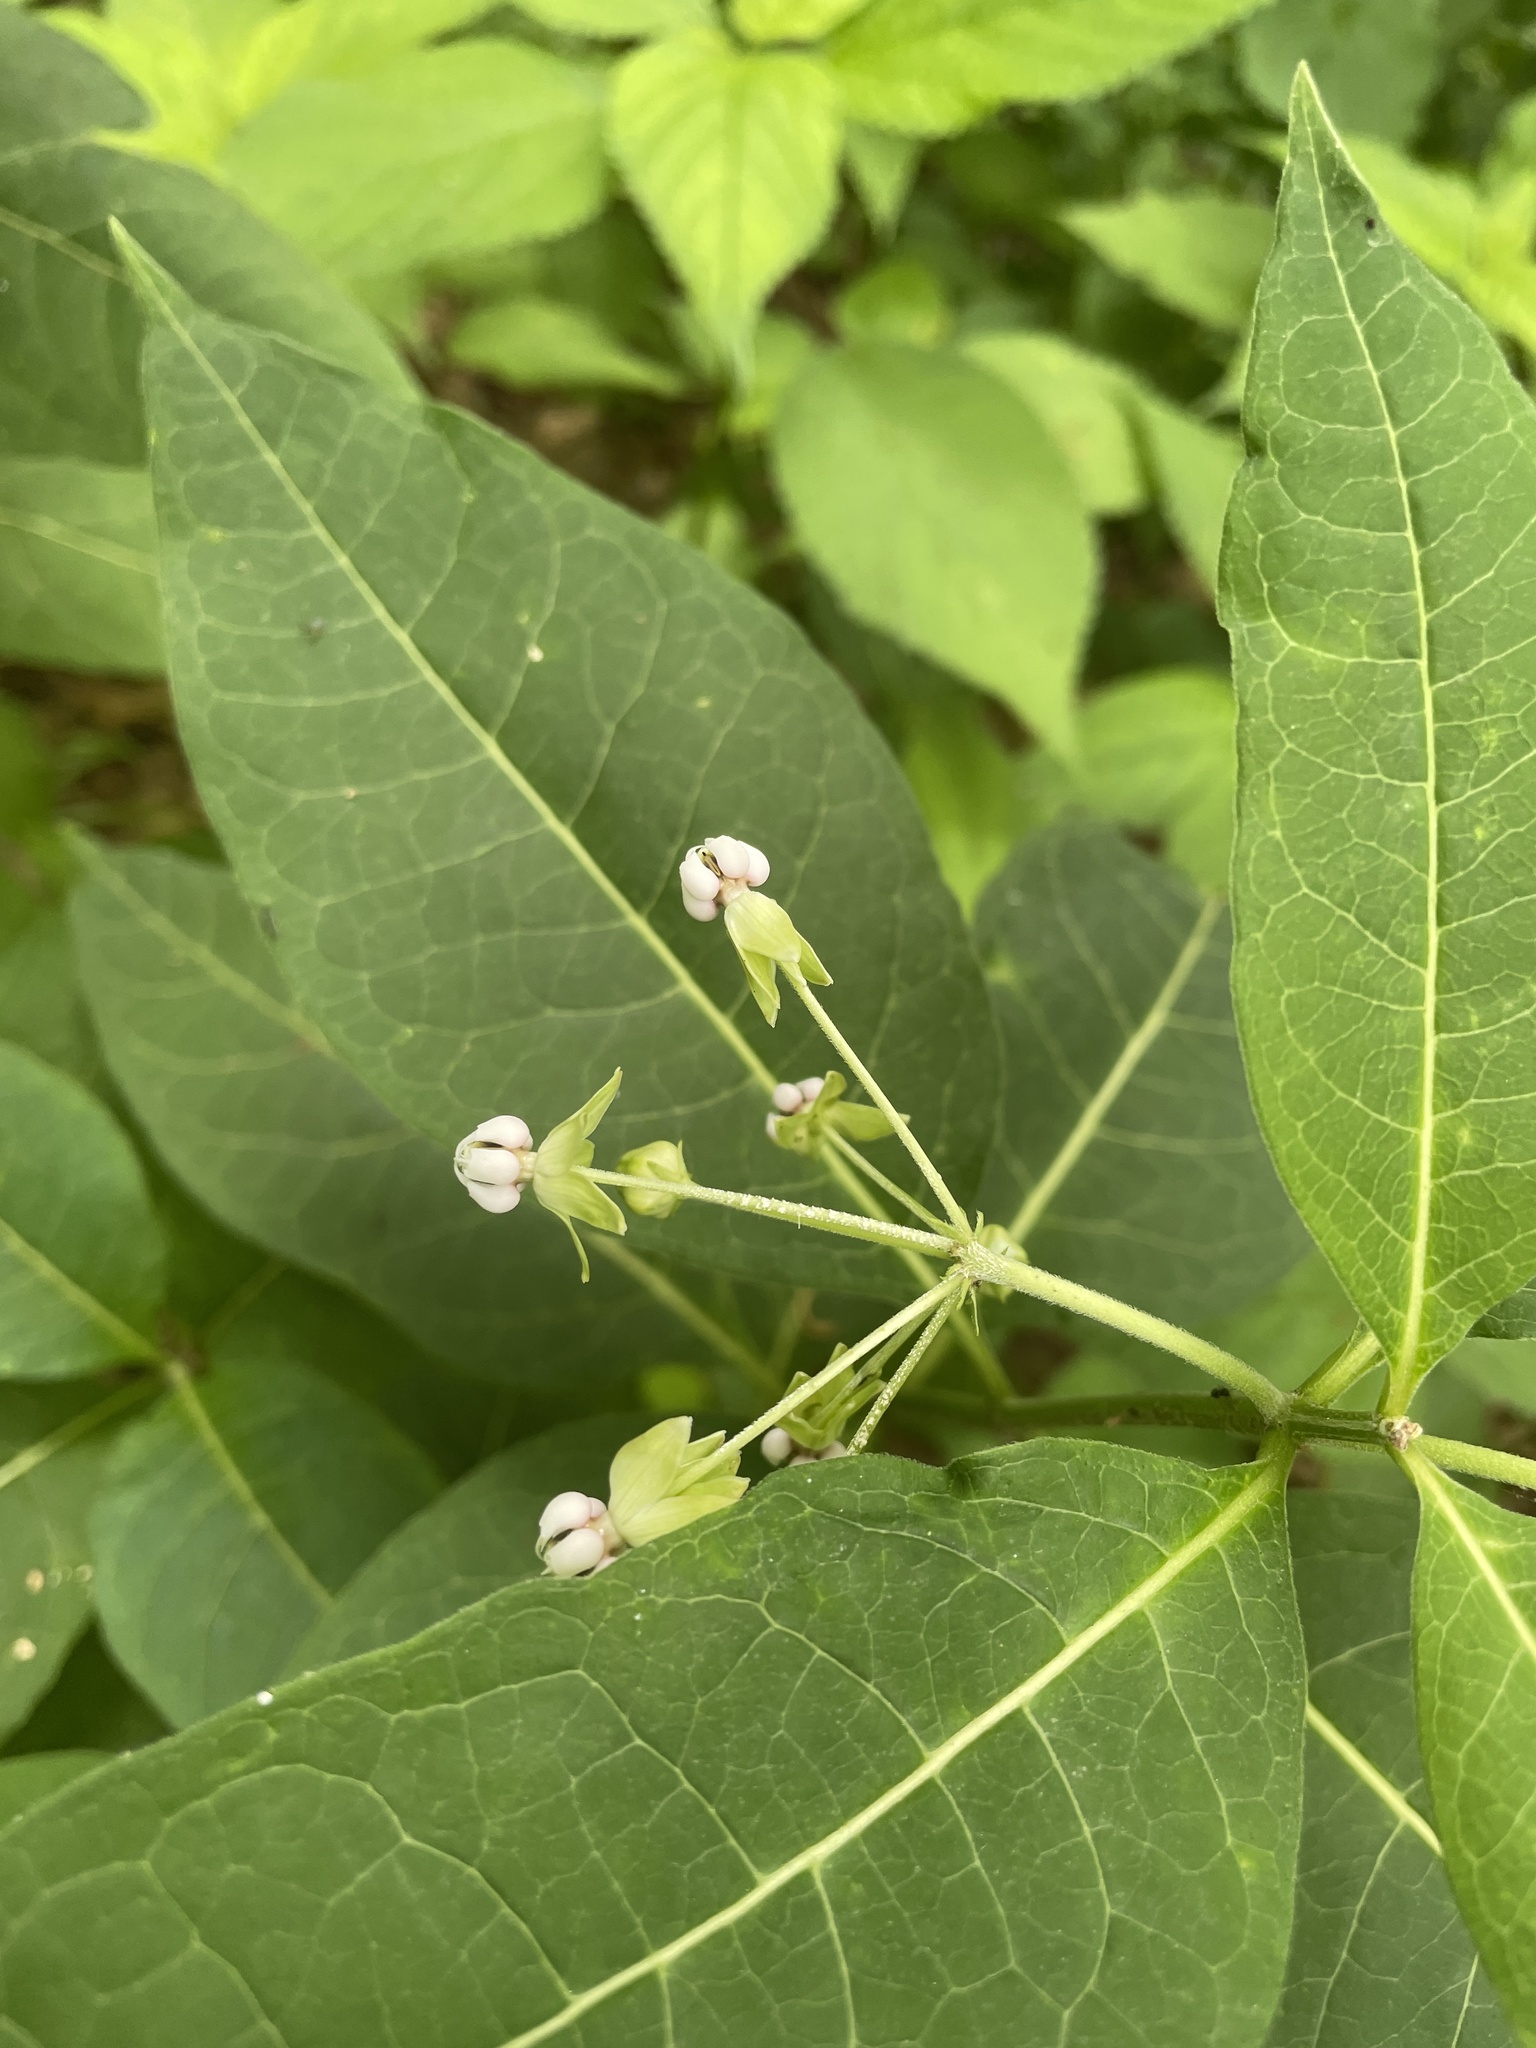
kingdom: Plantae
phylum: Tracheophyta
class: Magnoliopsida
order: Gentianales
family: Apocynaceae
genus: Asclepias
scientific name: Asclepias exaltata
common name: Poke milkweed
